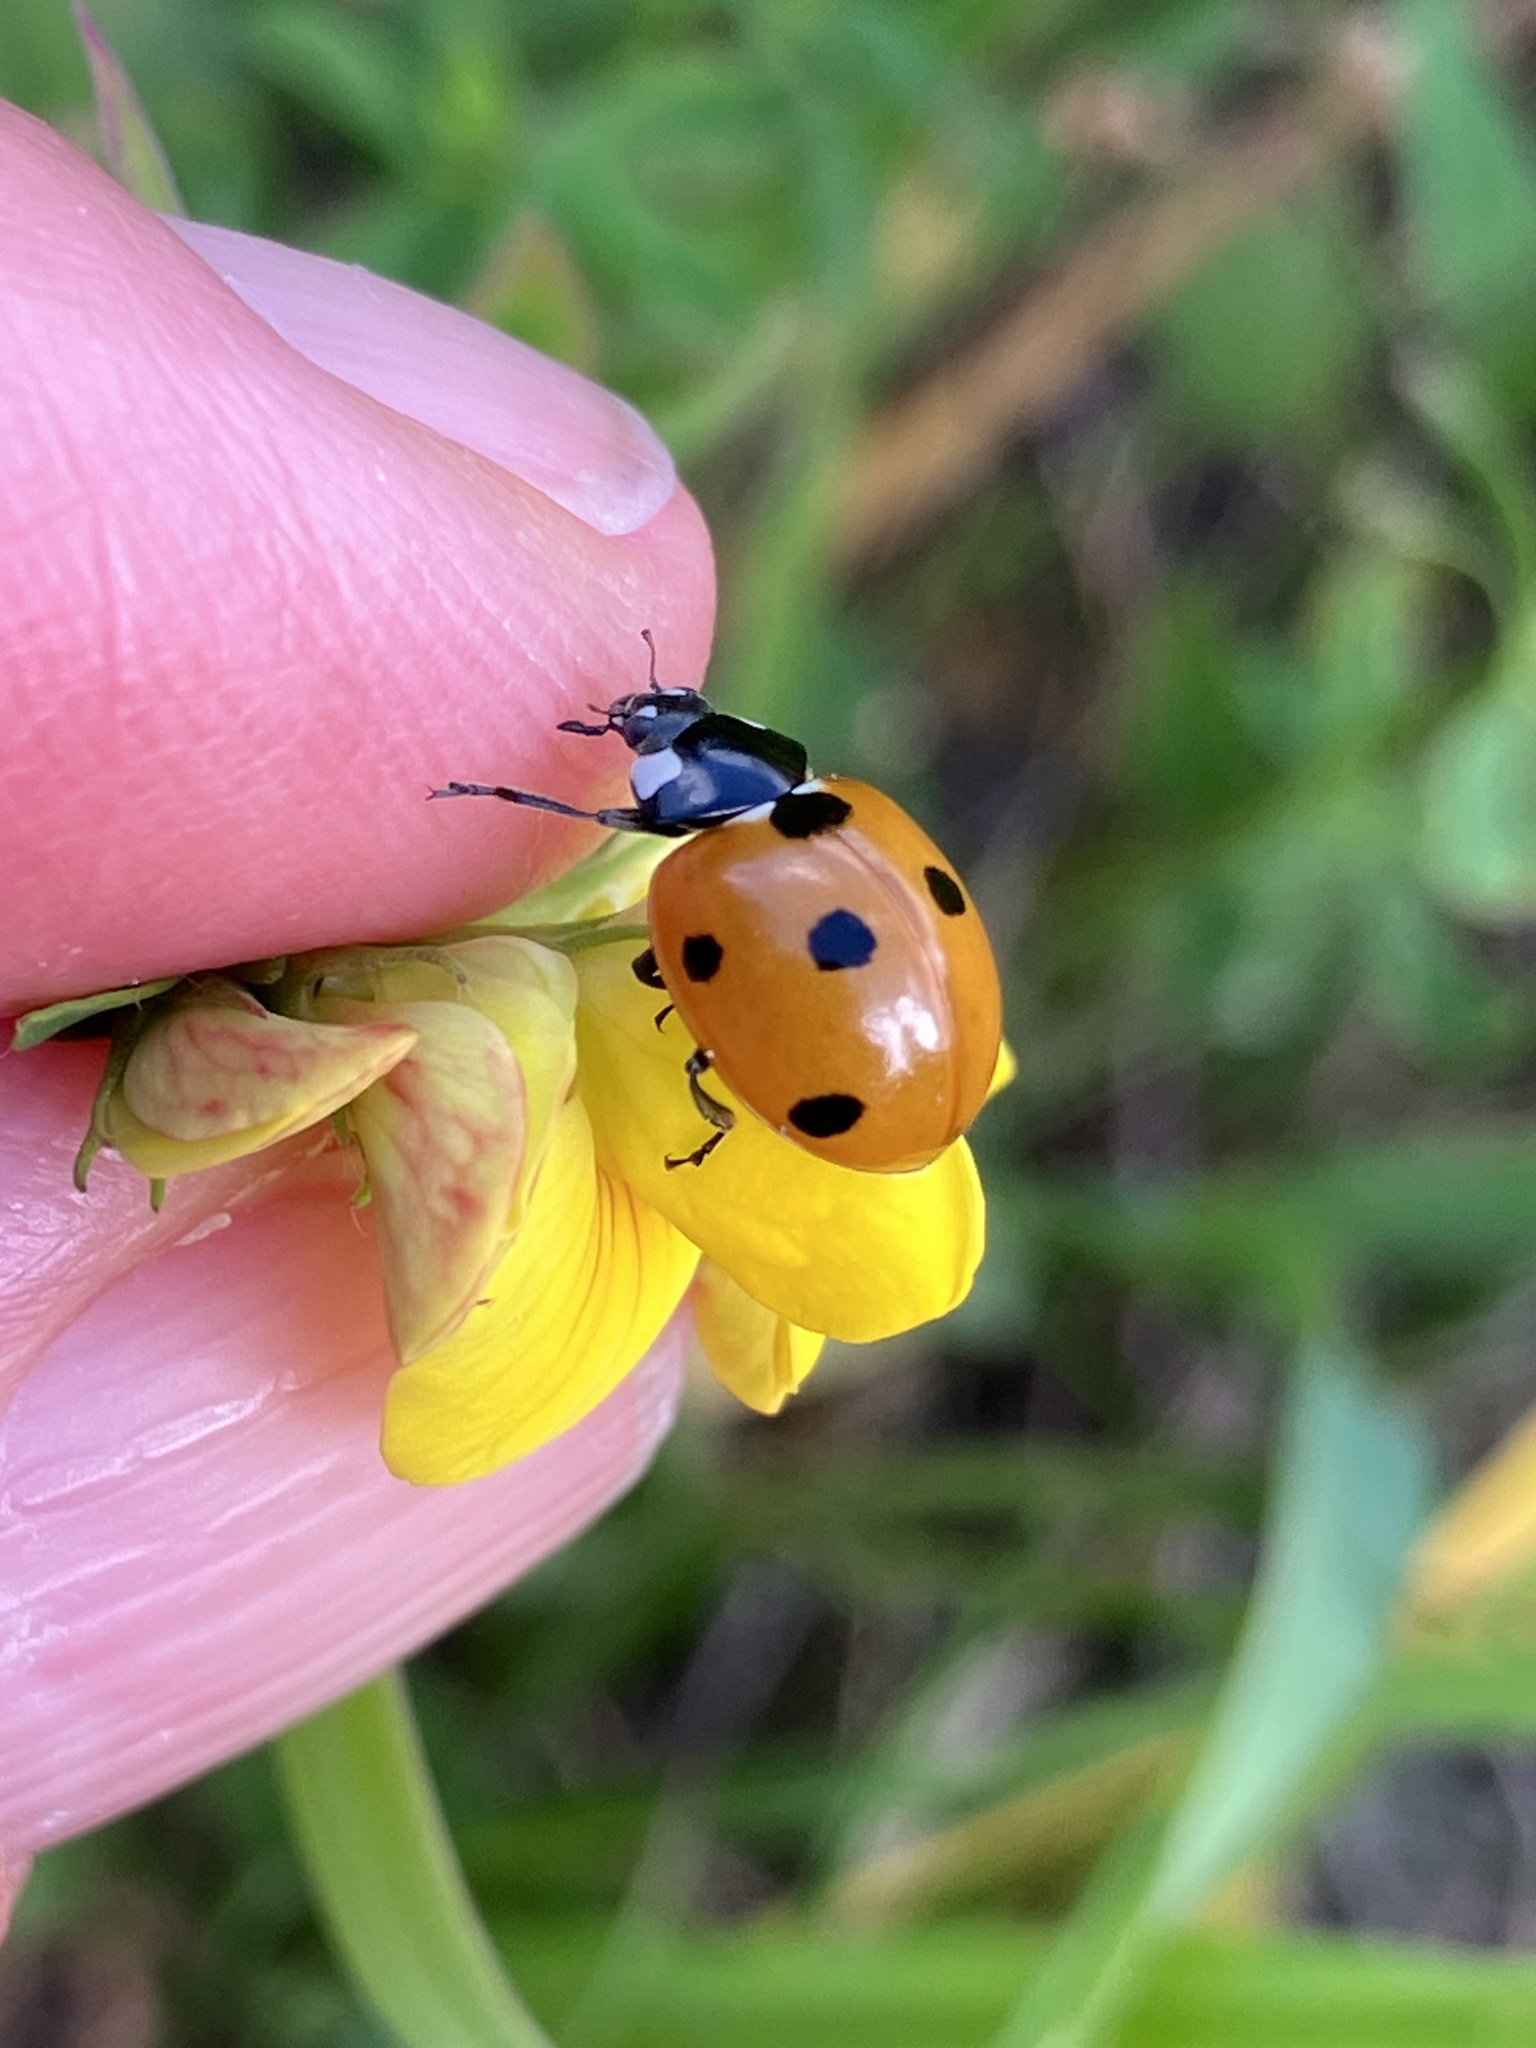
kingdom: Animalia
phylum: Arthropoda
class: Insecta
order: Coleoptera
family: Coccinellidae
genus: Coccinella
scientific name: Coccinella septempunctata
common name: Sevenspotted lady beetle
